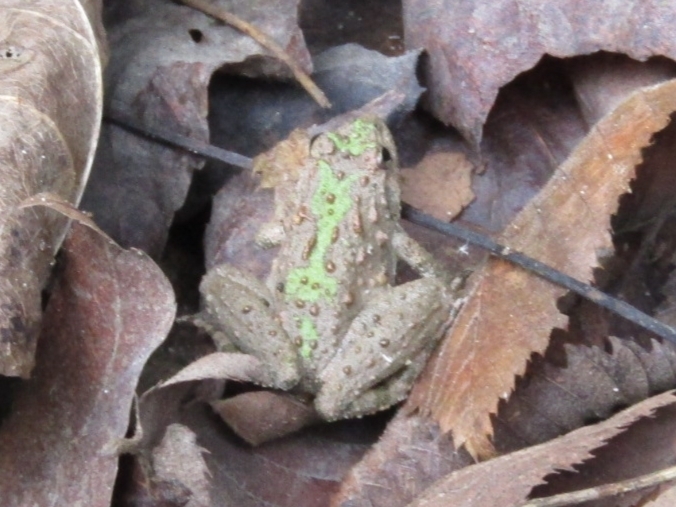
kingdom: Animalia
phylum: Chordata
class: Amphibia
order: Anura
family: Hylidae
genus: Acris
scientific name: Acris blanchardi
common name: Blanchard's cricket frog
